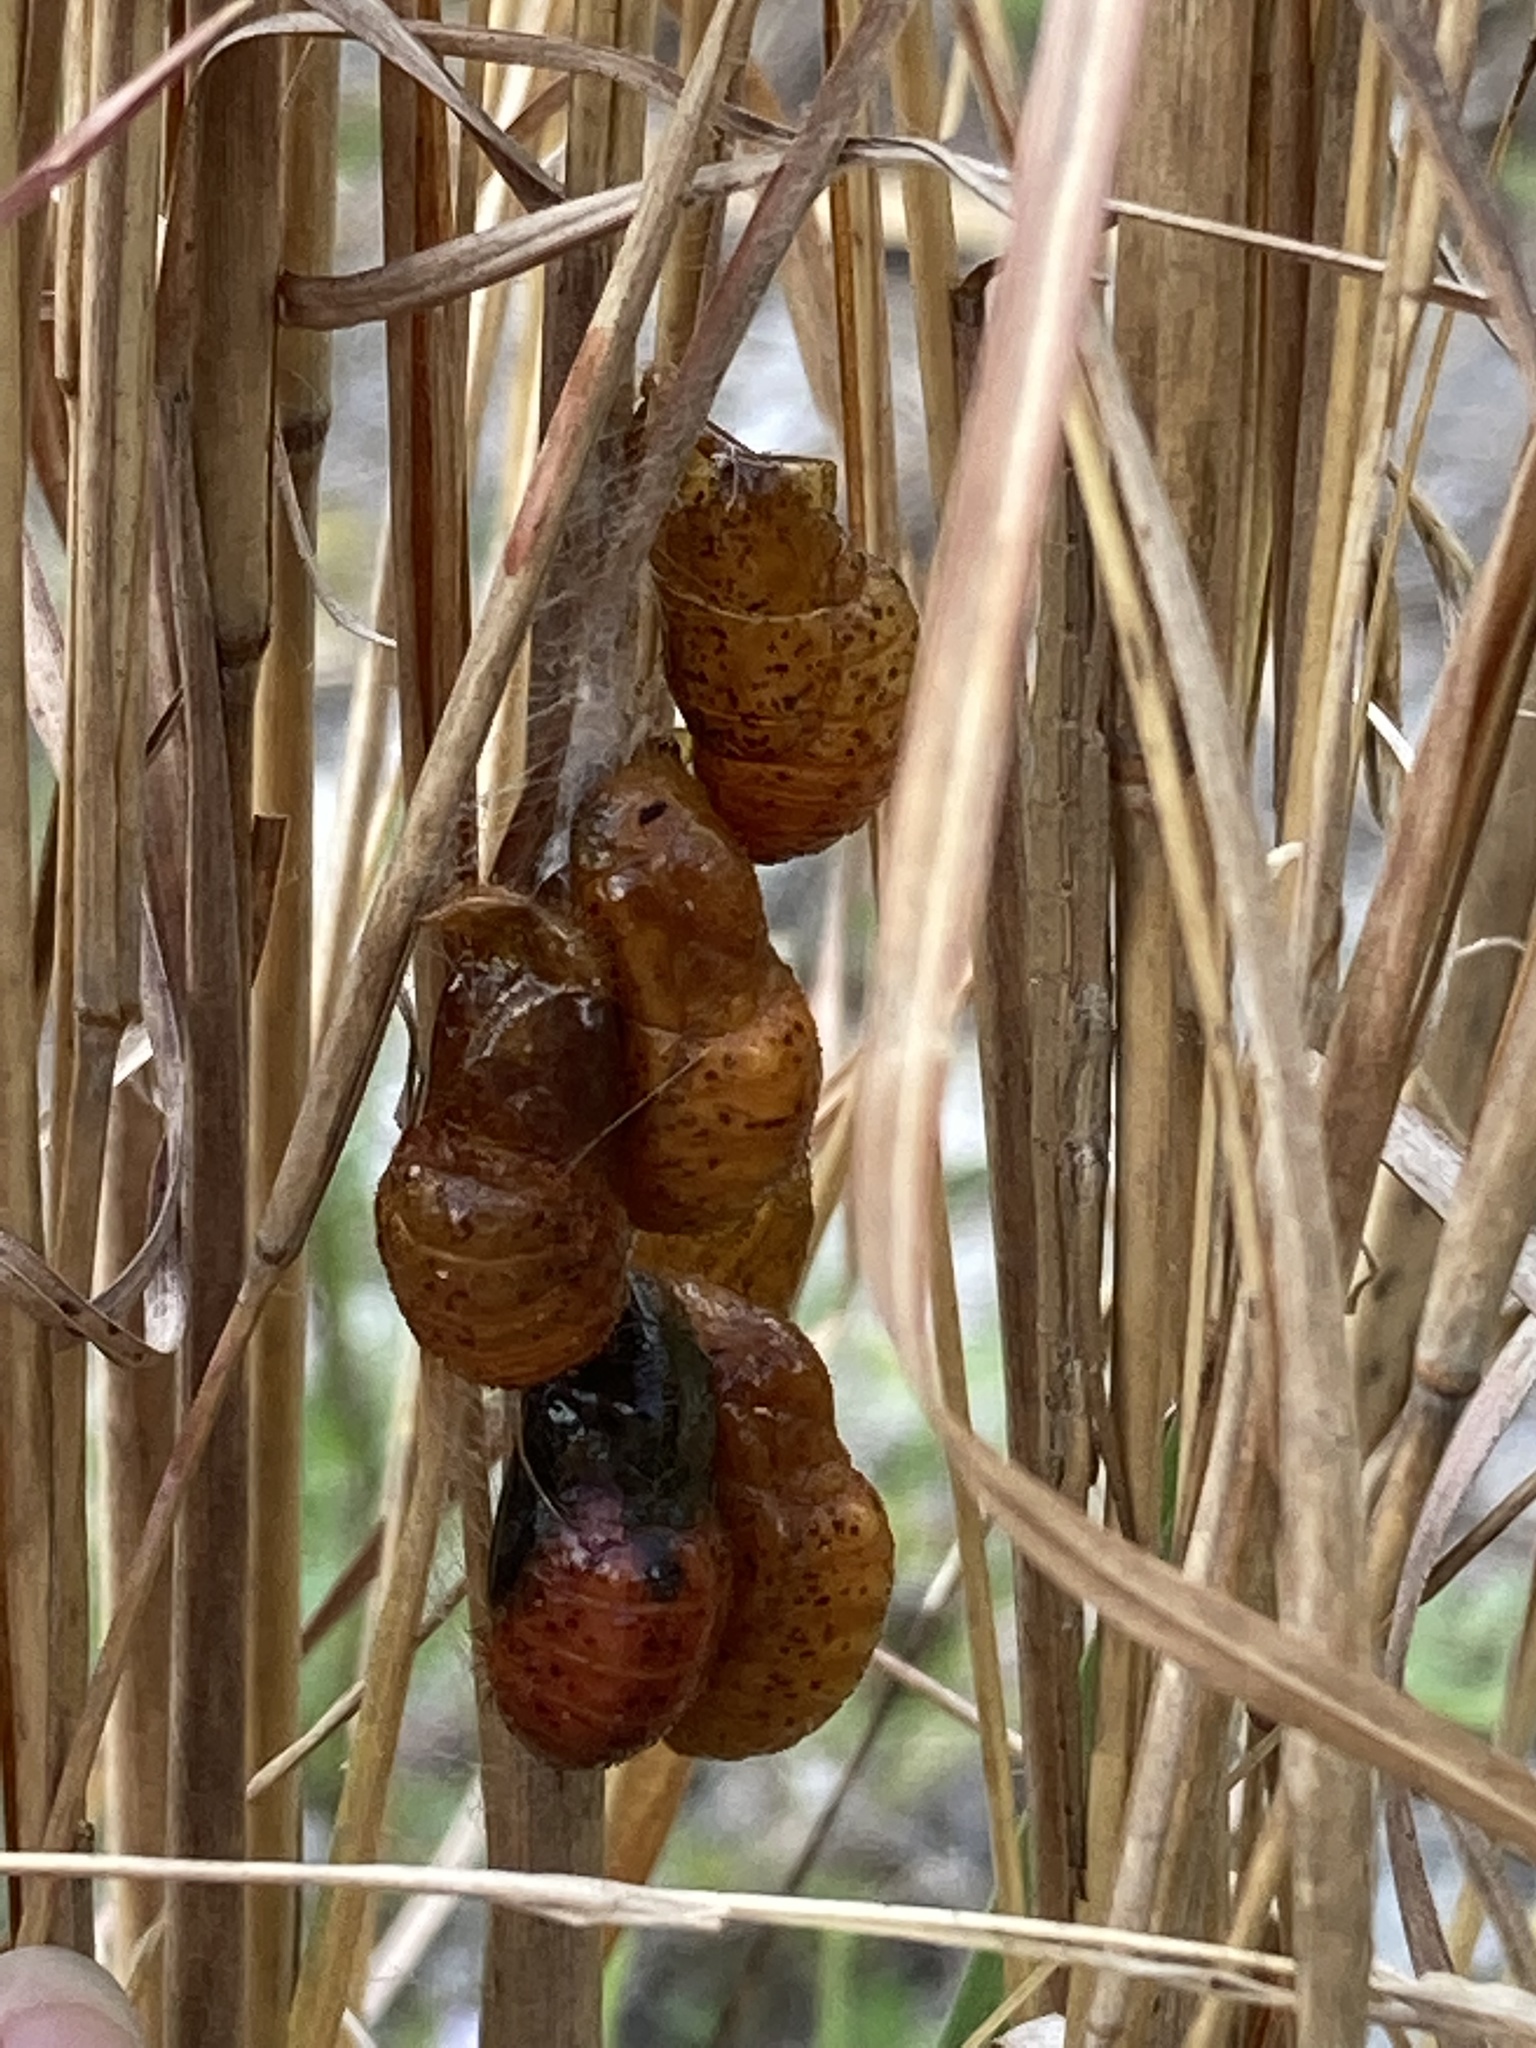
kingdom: Animalia
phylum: Arthropoda
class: Insecta
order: Lepidoptera
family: Lycaenidae
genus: Eumaeus
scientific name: Eumaeus atala
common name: Atala
